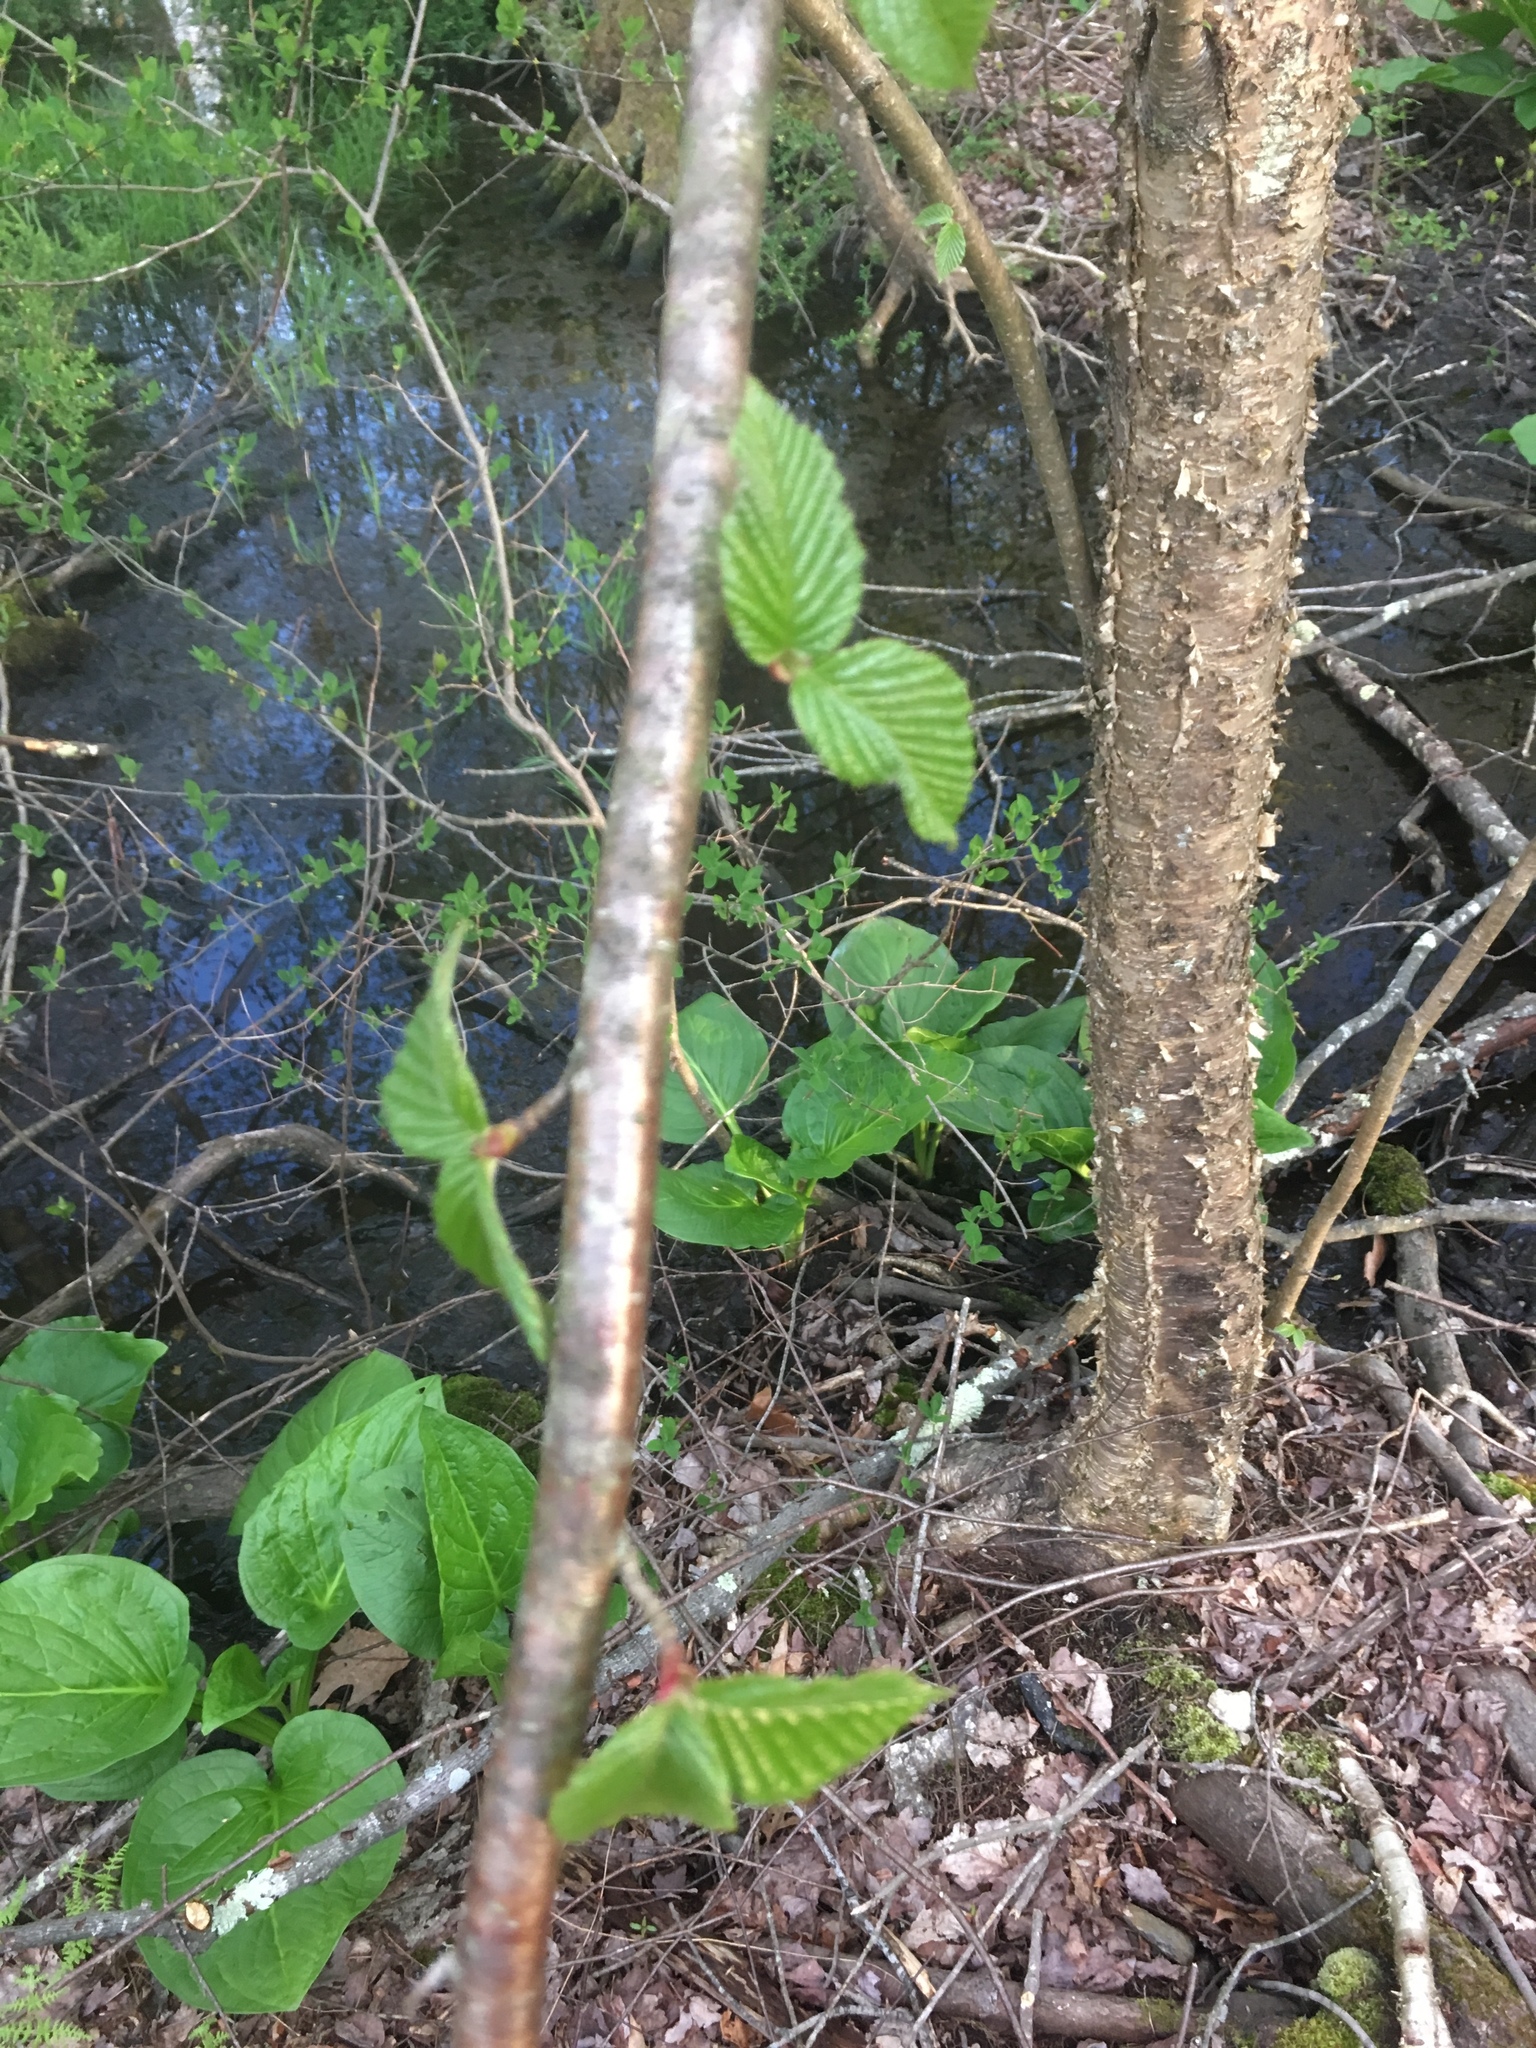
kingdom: Plantae
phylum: Tracheophyta
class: Magnoliopsida
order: Fagales
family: Betulaceae
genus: Betula
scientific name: Betula alleghaniensis
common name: Yellow birch
